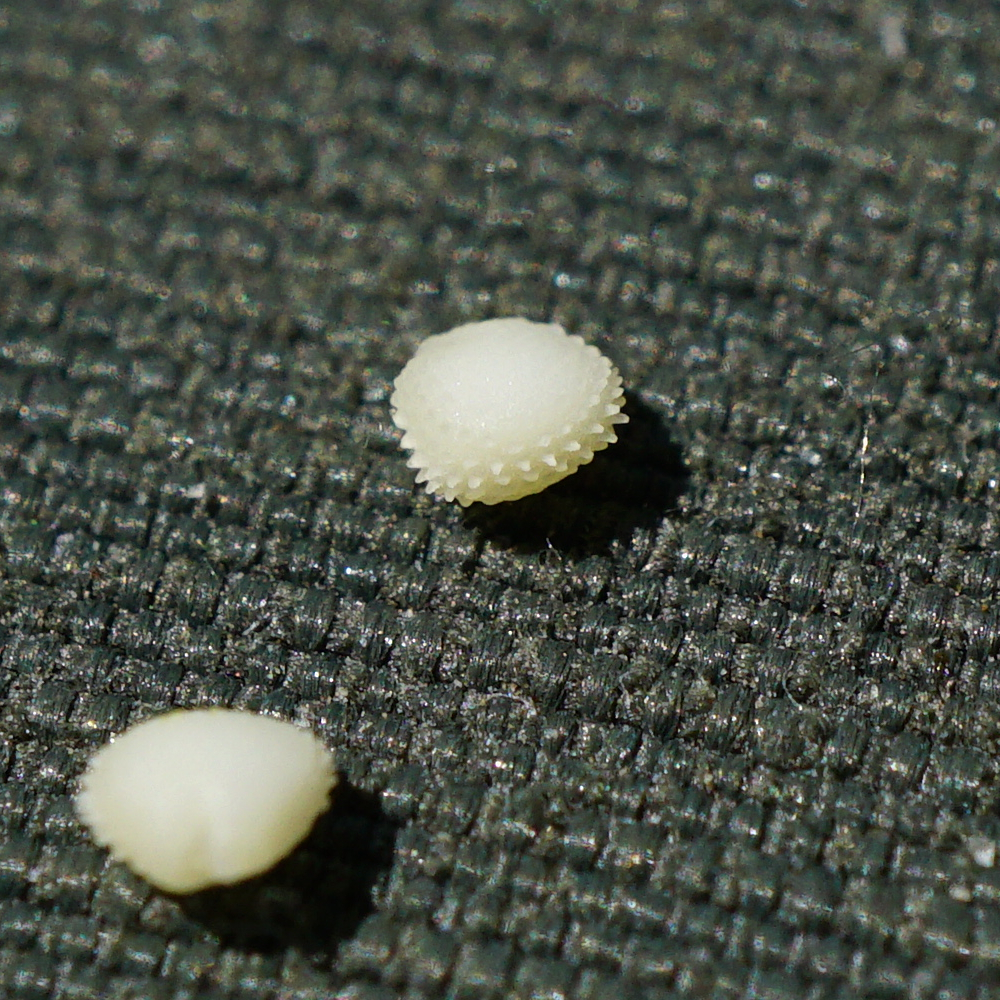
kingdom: Plantae
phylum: Tracheophyta
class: Magnoliopsida
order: Caryophyllales
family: Caryophyllaceae
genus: Stellaria
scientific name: Stellaria ruderalis
